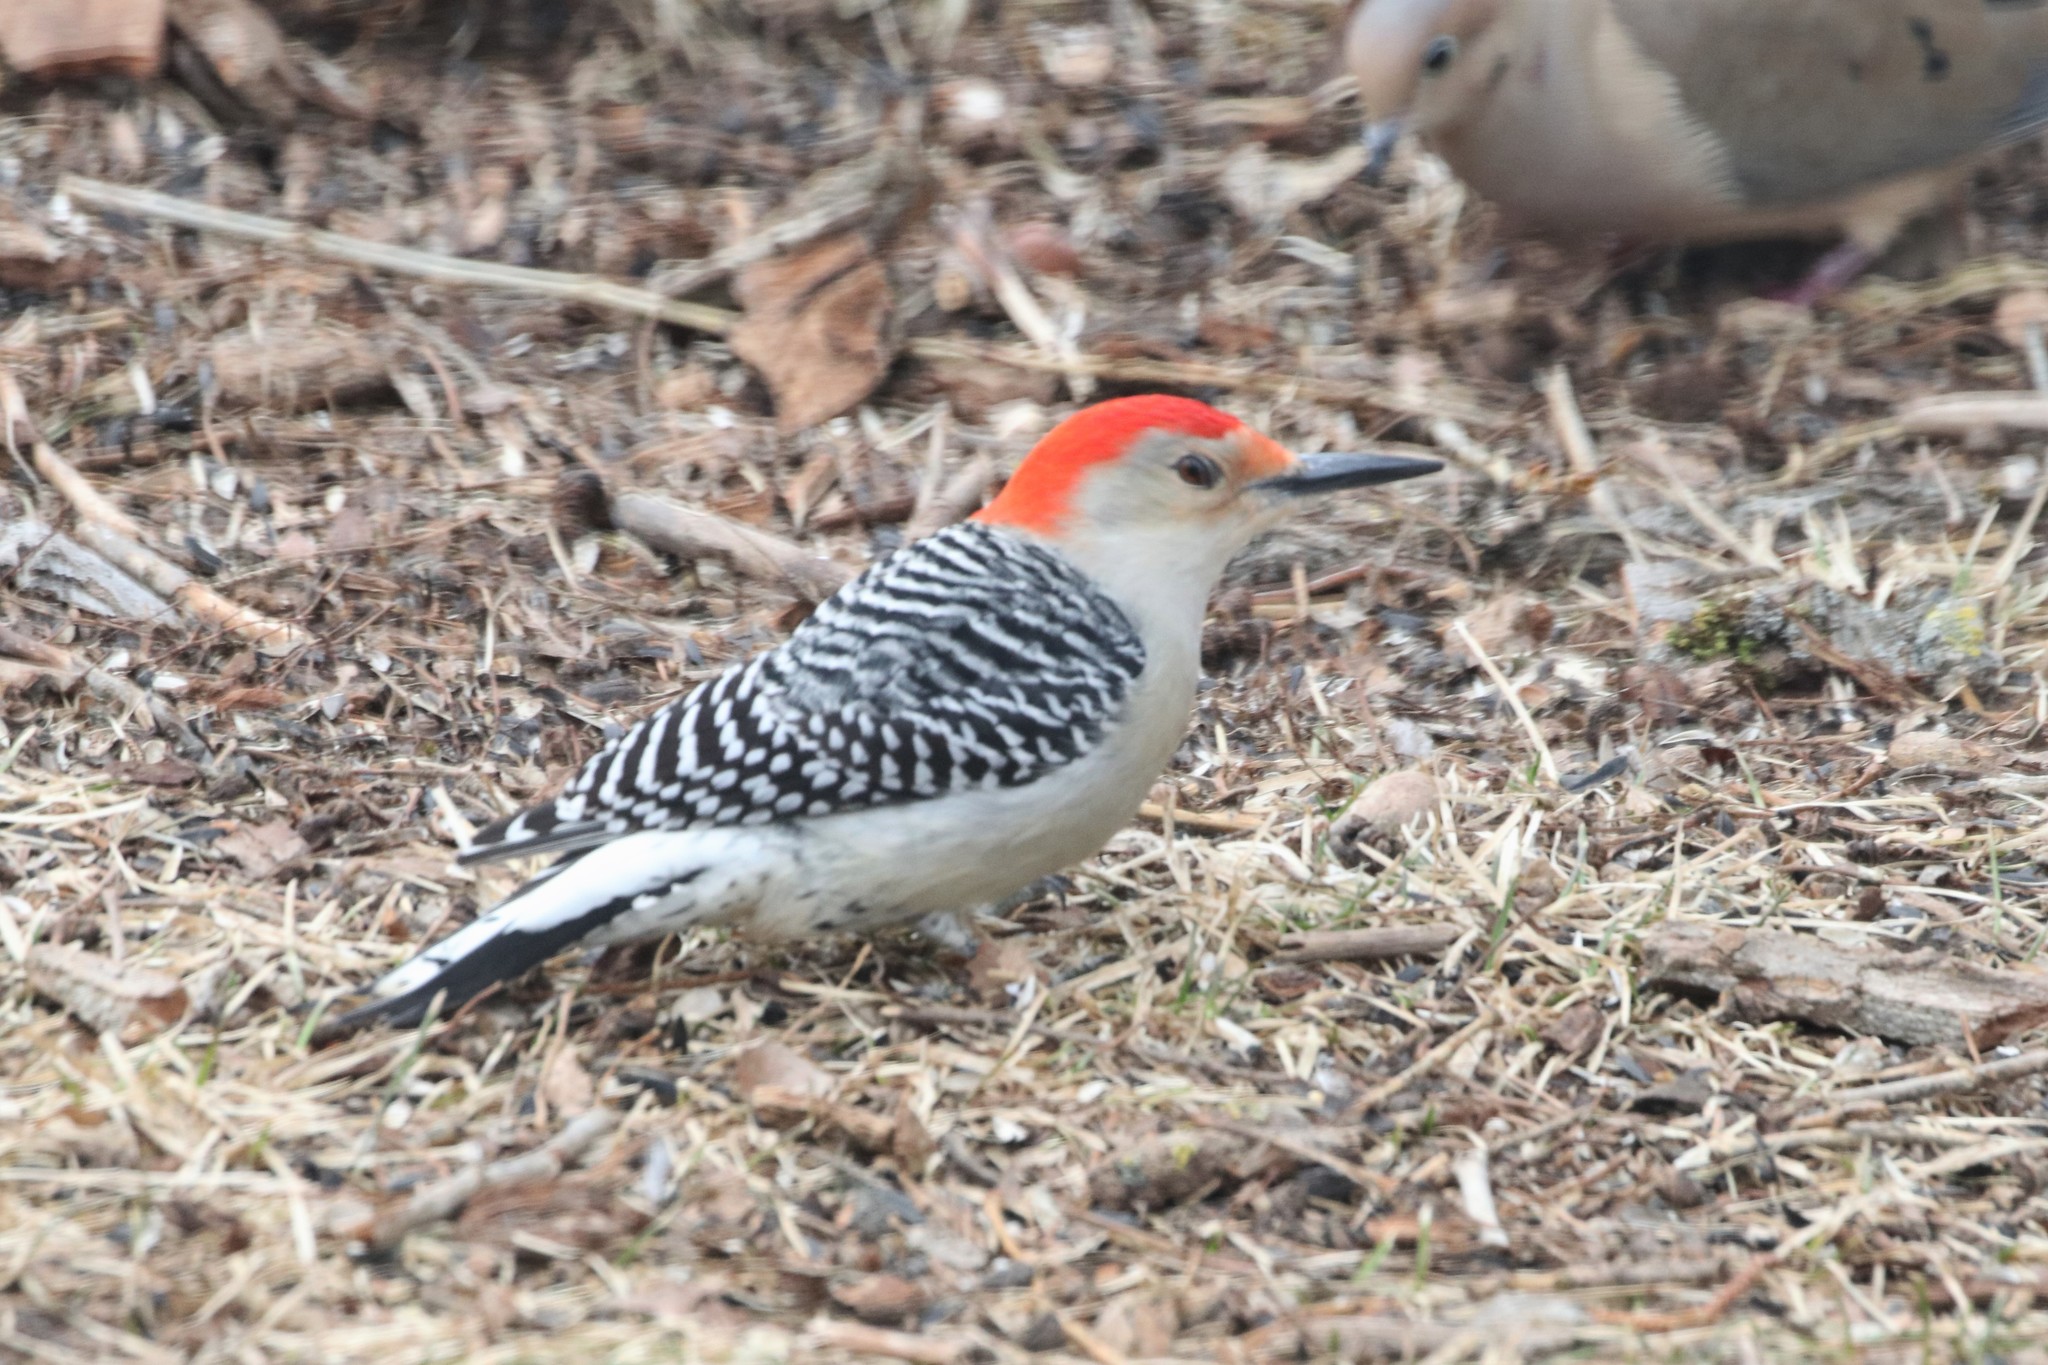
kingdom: Animalia
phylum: Chordata
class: Aves
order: Piciformes
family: Picidae
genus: Melanerpes
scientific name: Melanerpes carolinus
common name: Red-bellied woodpecker
